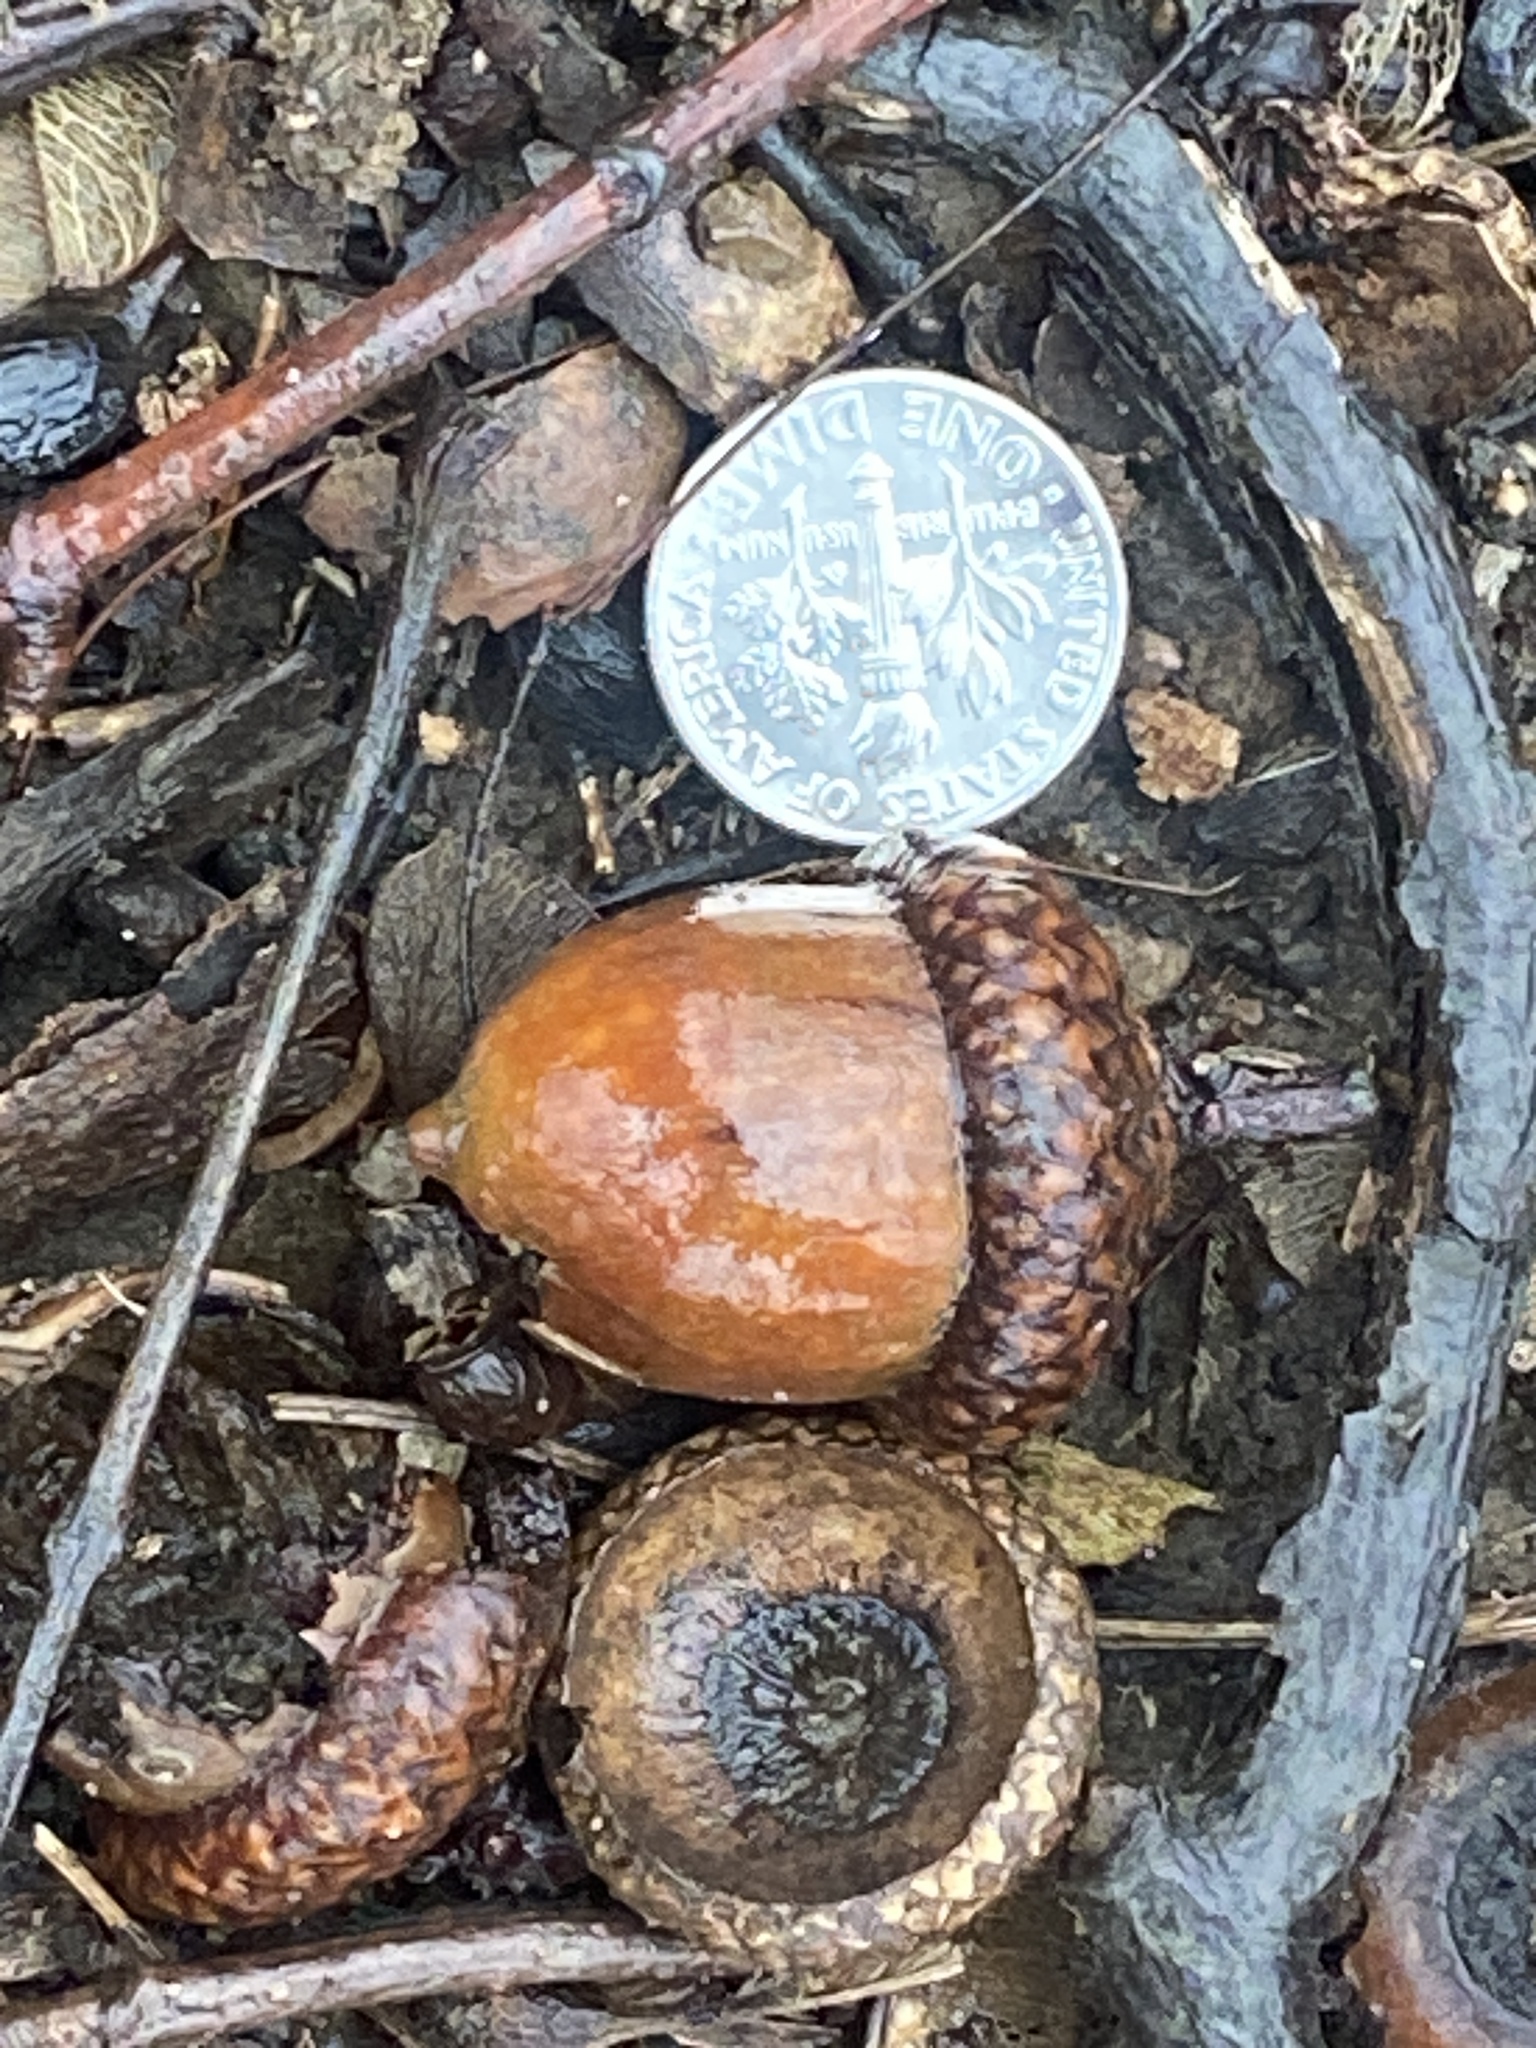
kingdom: Plantae
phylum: Tracheophyta
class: Magnoliopsida
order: Fagales
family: Fagaceae
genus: Quercus
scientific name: Quercus rubra
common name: Red oak
